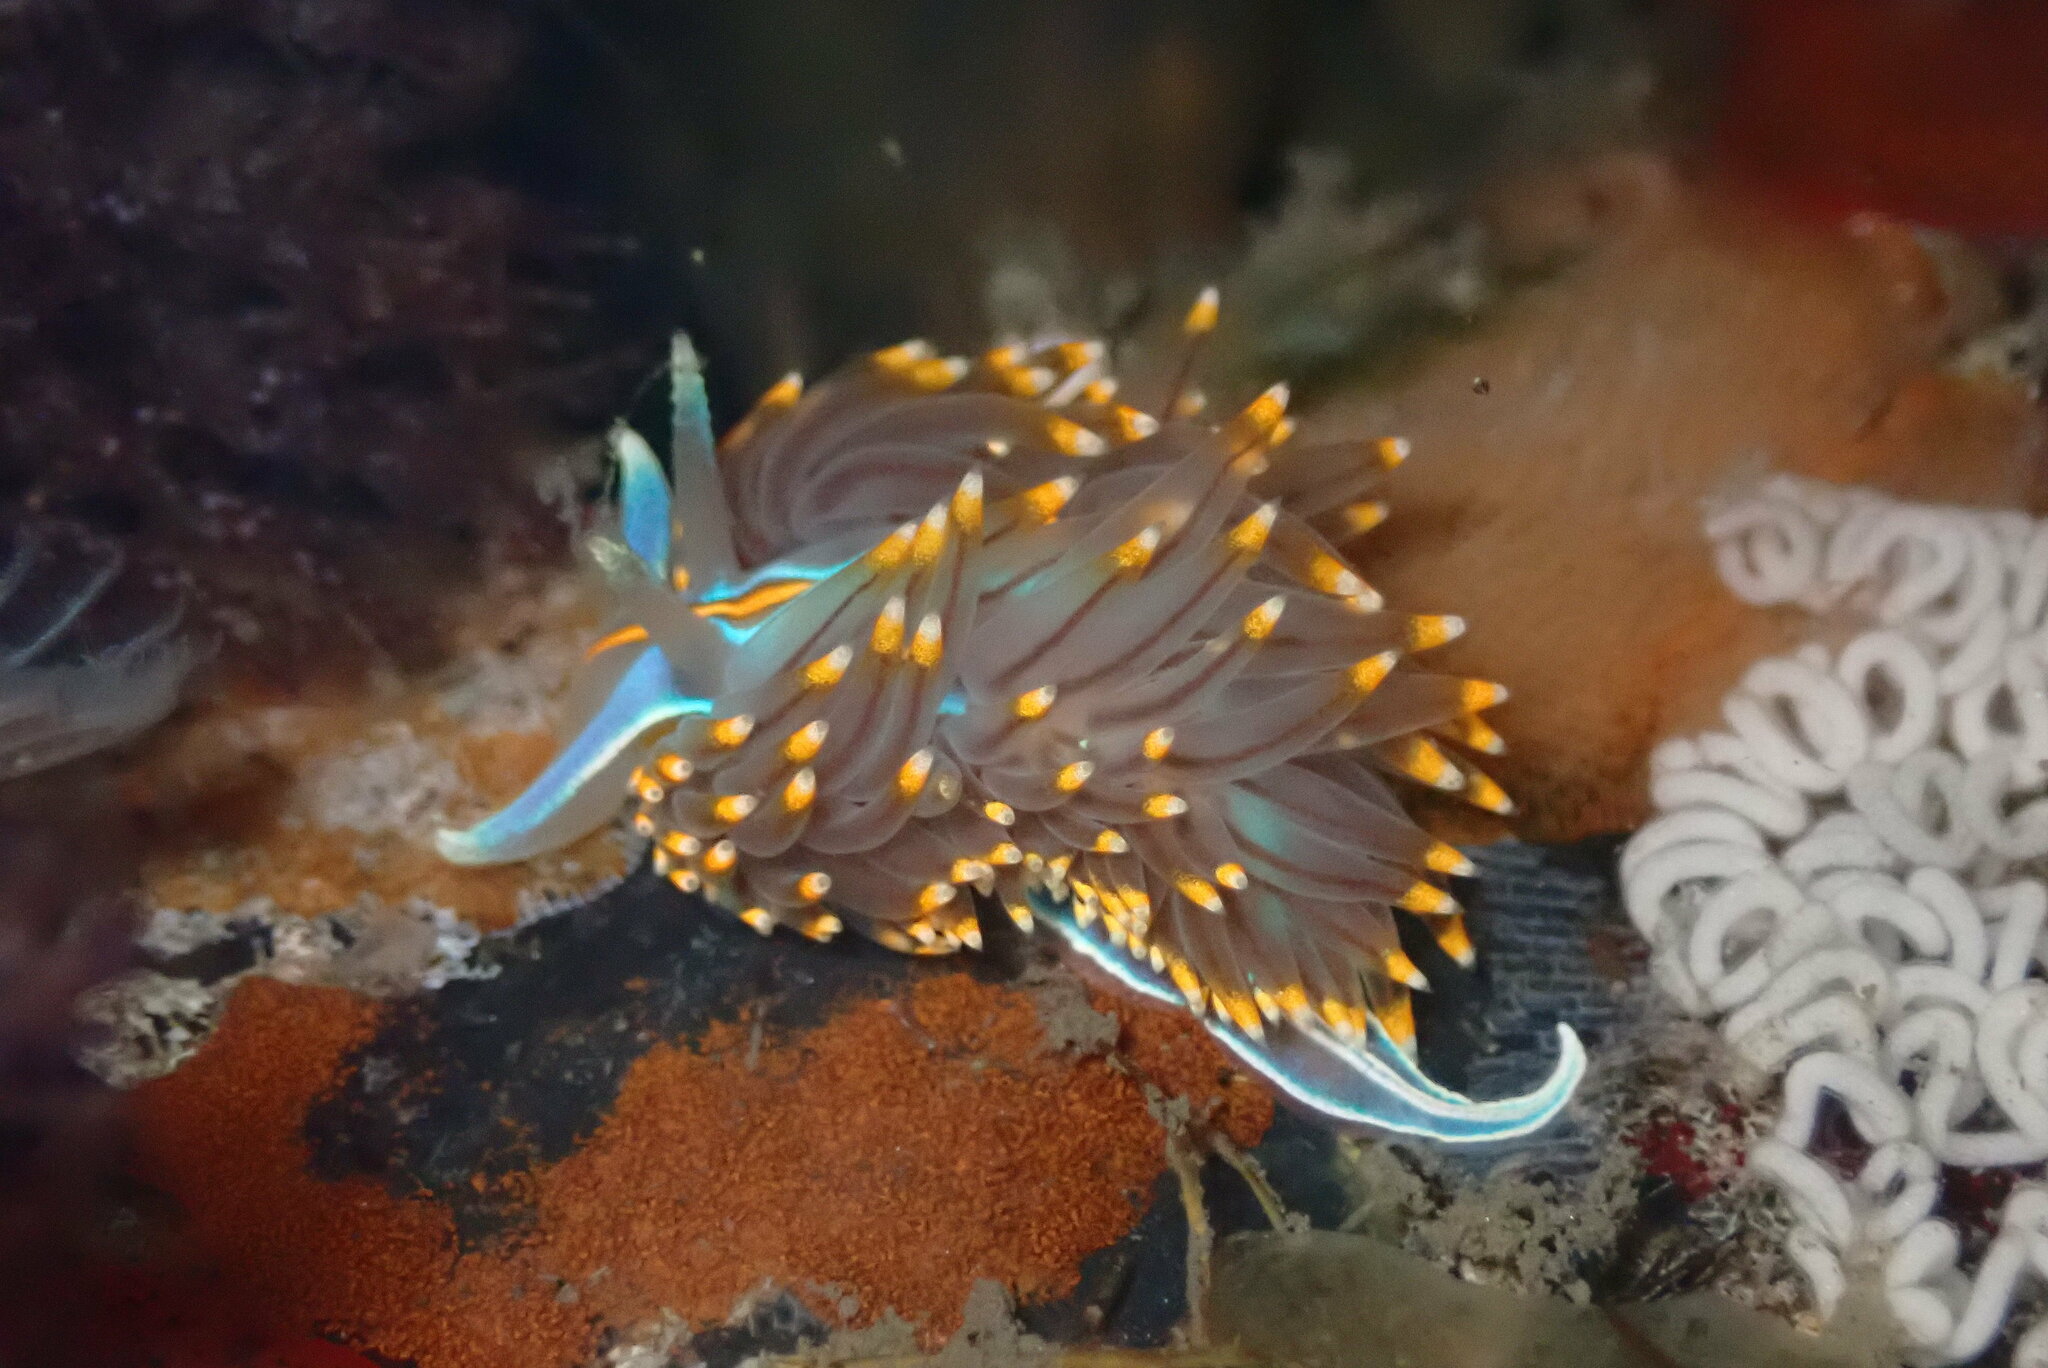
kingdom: Animalia
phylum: Mollusca
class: Gastropoda
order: Nudibranchia
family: Myrrhinidae
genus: Hermissenda
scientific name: Hermissenda opalescens
